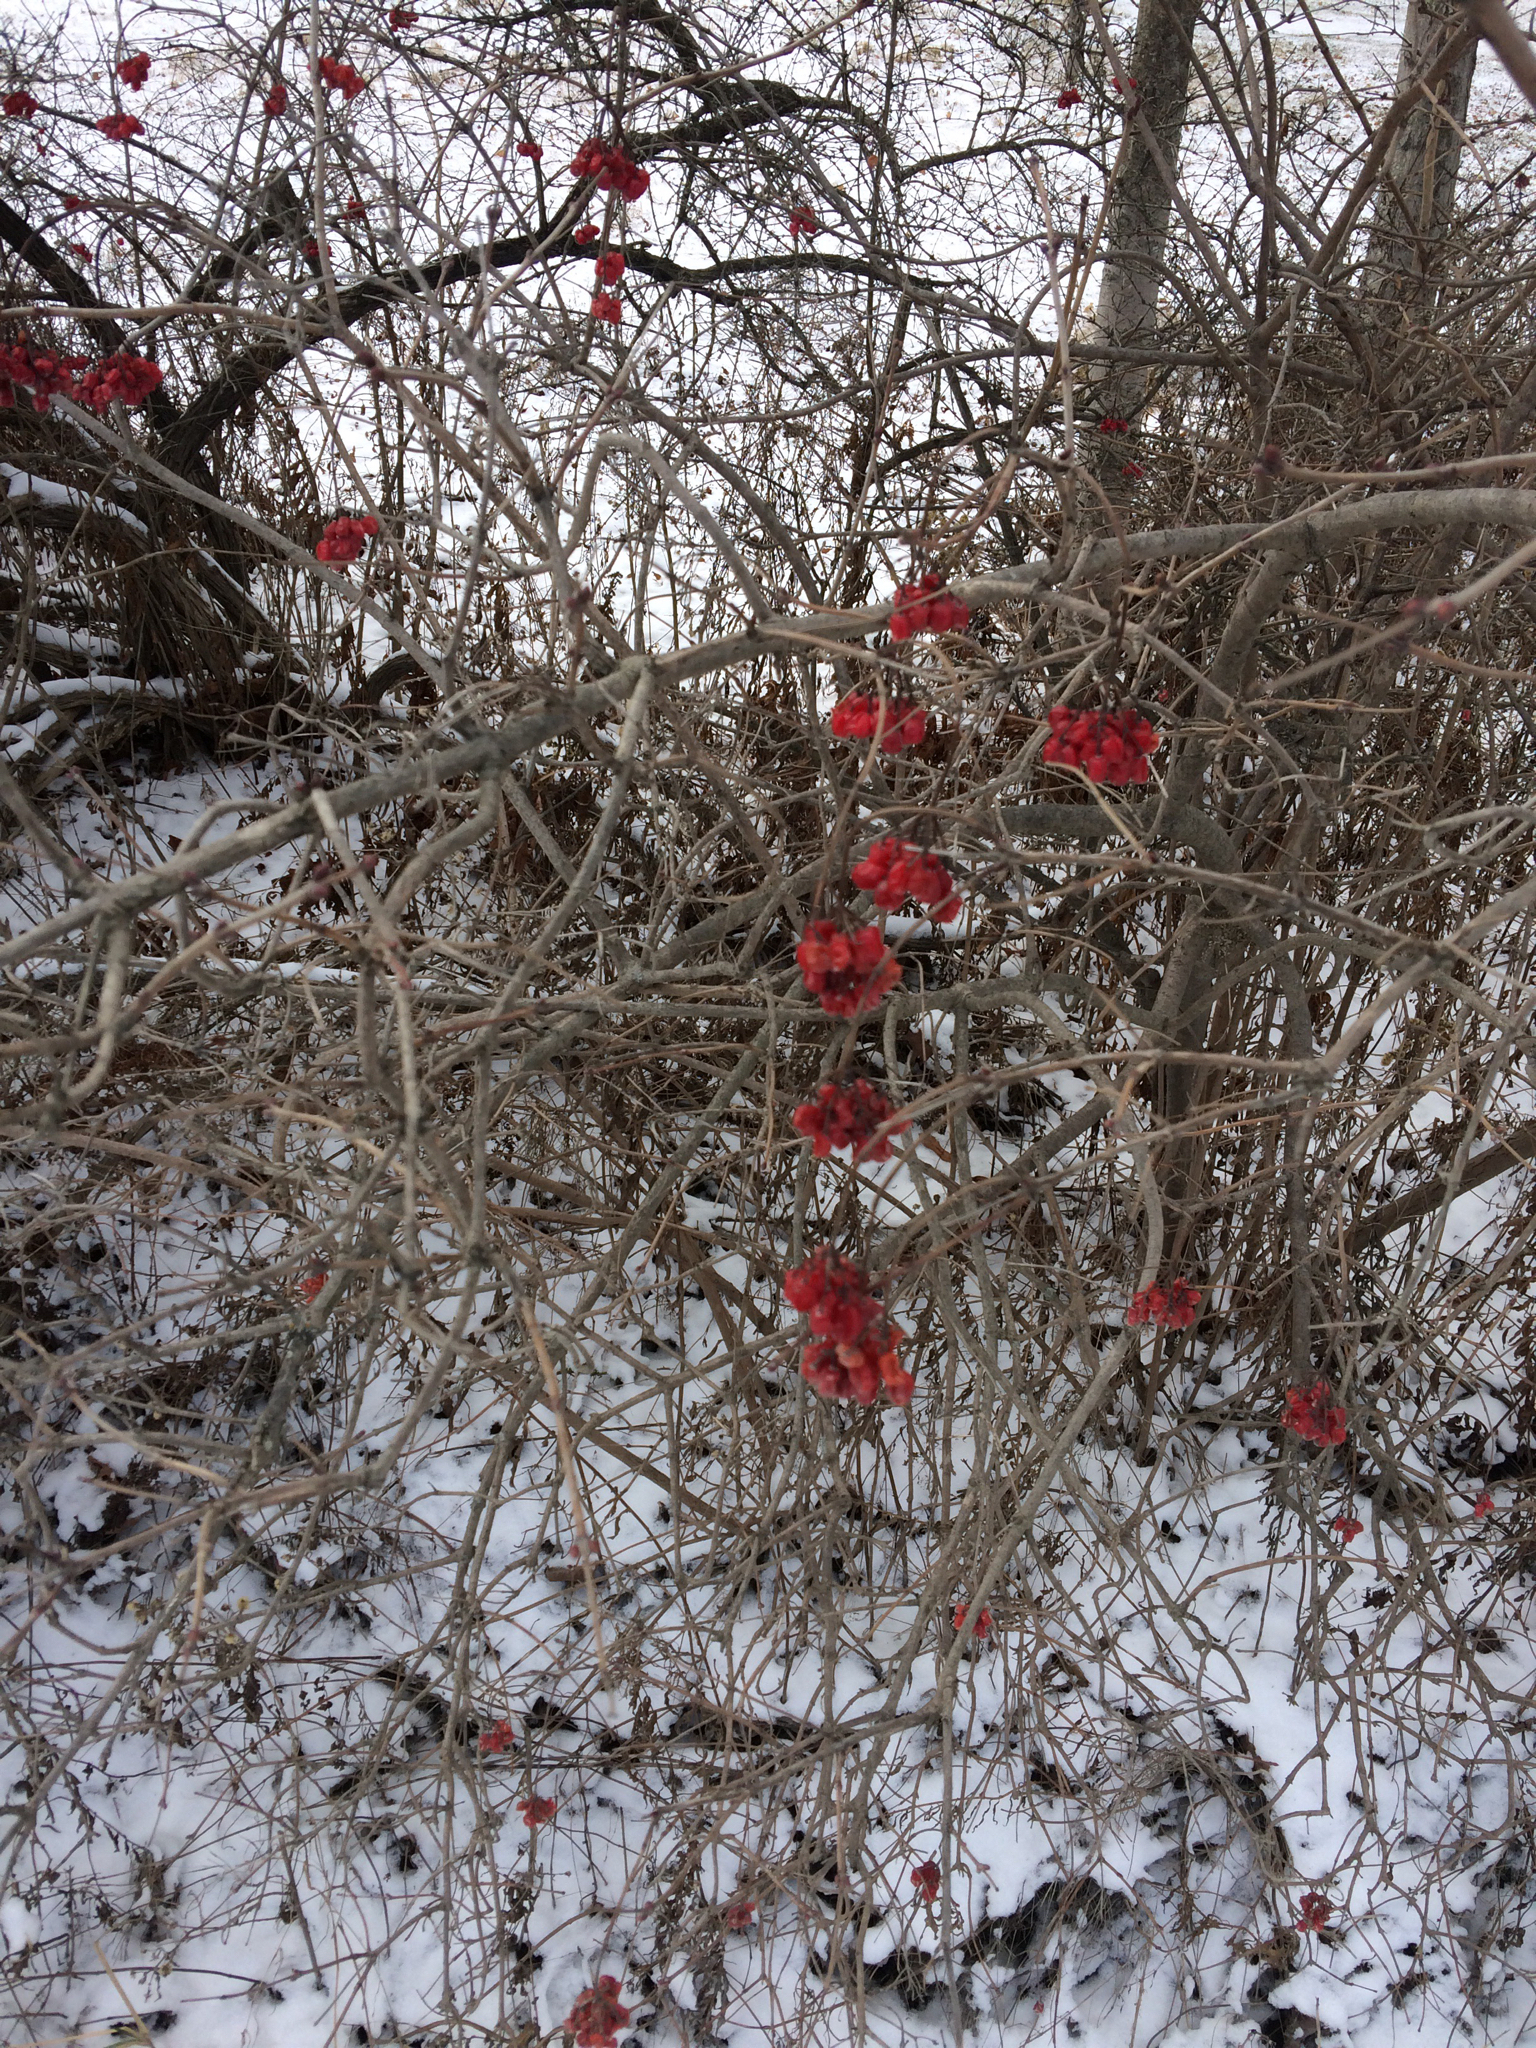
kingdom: Plantae
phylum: Tracheophyta
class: Magnoliopsida
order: Dipsacales
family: Viburnaceae
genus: Viburnum
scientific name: Viburnum opulus
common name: Guelder-rose
